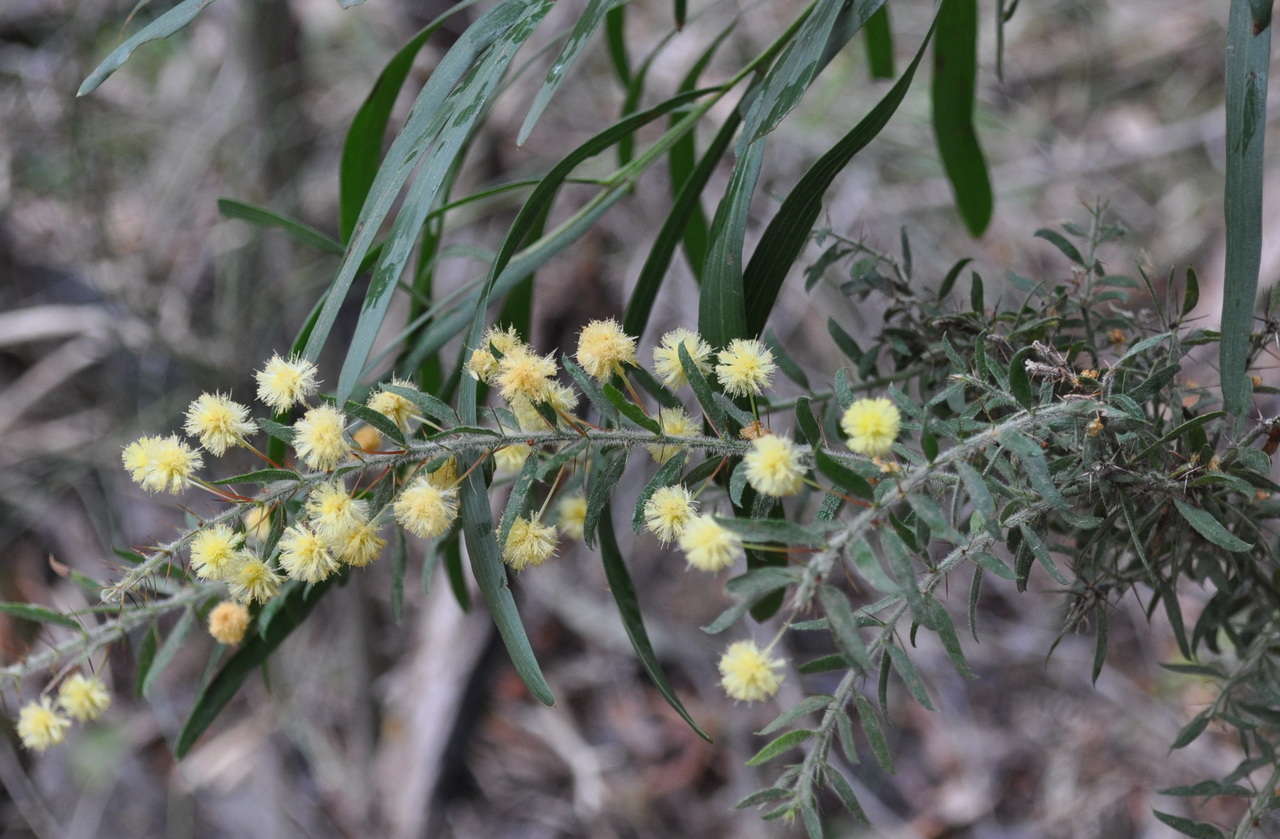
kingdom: Plantae
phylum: Tracheophyta
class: Magnoliopsida
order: Fabales
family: Fabaceae
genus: Acacia
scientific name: Acacia paradoxa
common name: Paradox acacia
